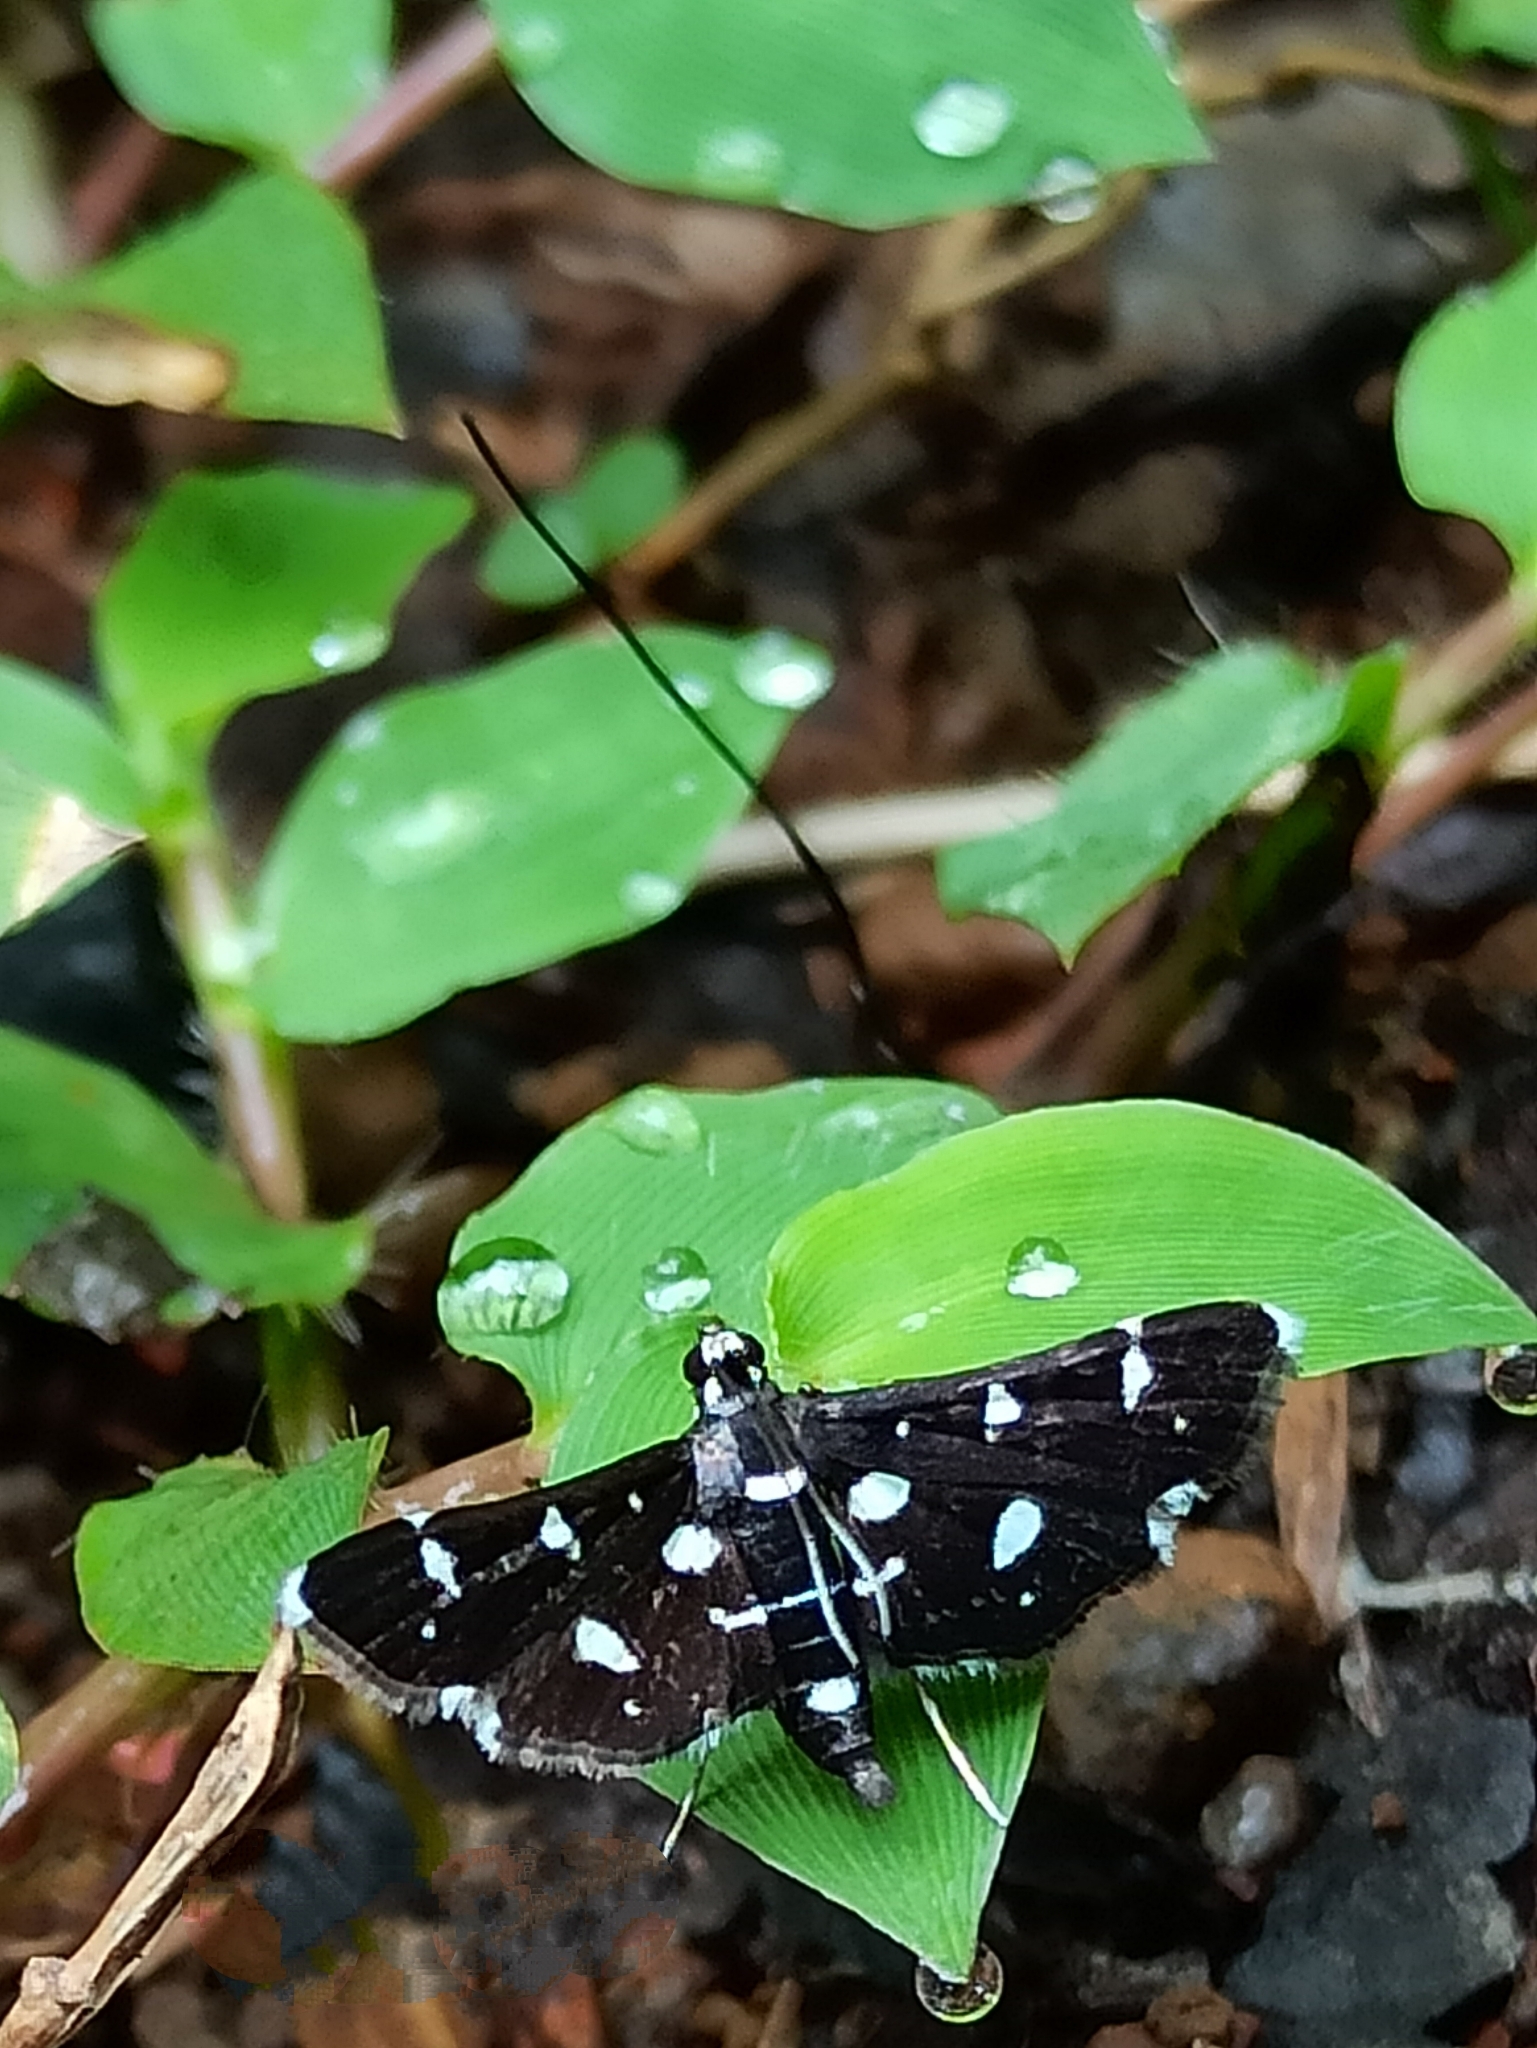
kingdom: Animalia
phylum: Arthropoda
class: Insecta
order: Lepidoptera
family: Crambidae
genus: Bocchoris
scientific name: Bocchoris inspersalis
